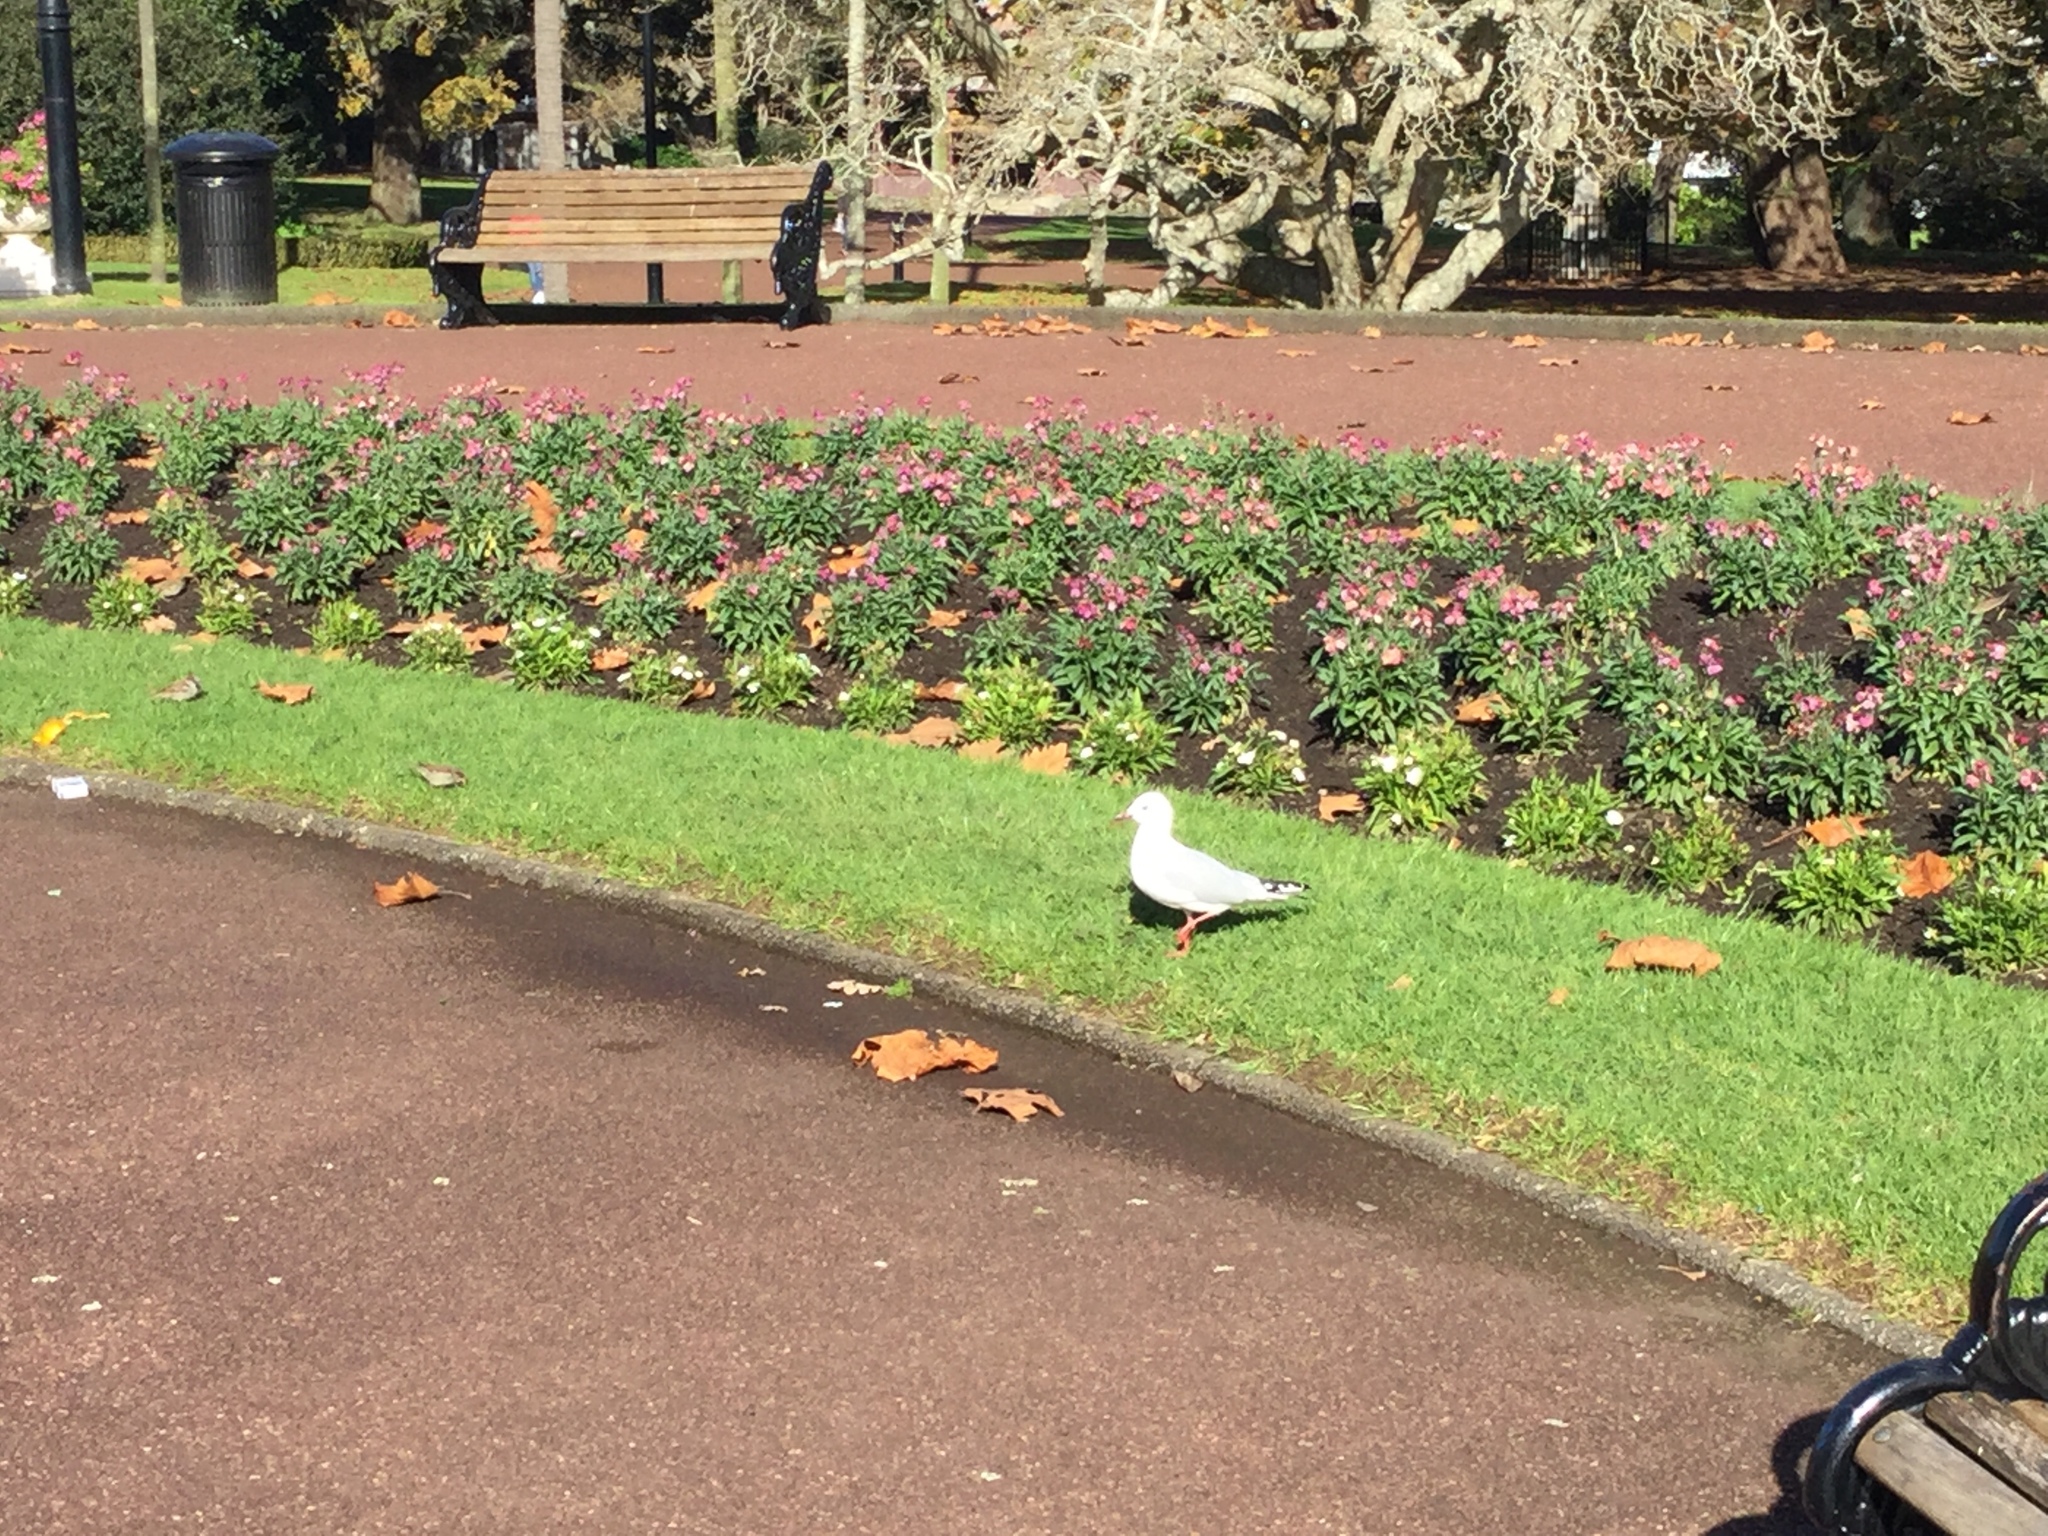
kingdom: Animalia
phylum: Chordata
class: Aves
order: Charadriiformes
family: Laridae
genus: Chroicocephalus
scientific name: Chroicocephalus novaehollandiae
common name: Silver gull
